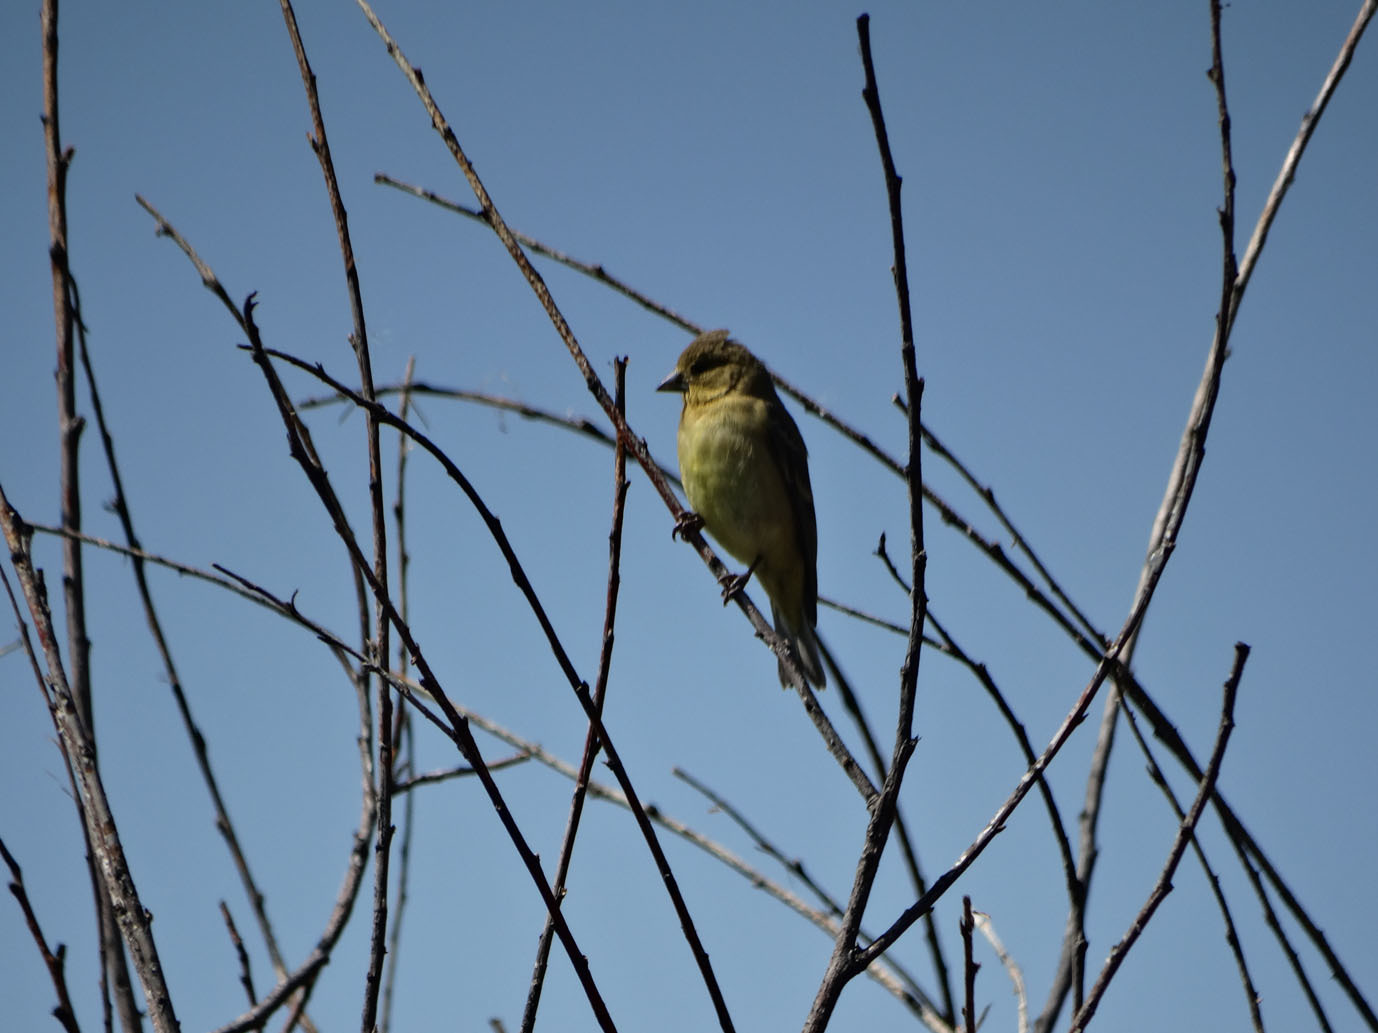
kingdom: Animalia
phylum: Chordata
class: Aves
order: Passeriformes
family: Fringillidae
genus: Spinus
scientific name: Spinus psaltria
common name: Lesser goldfinch
